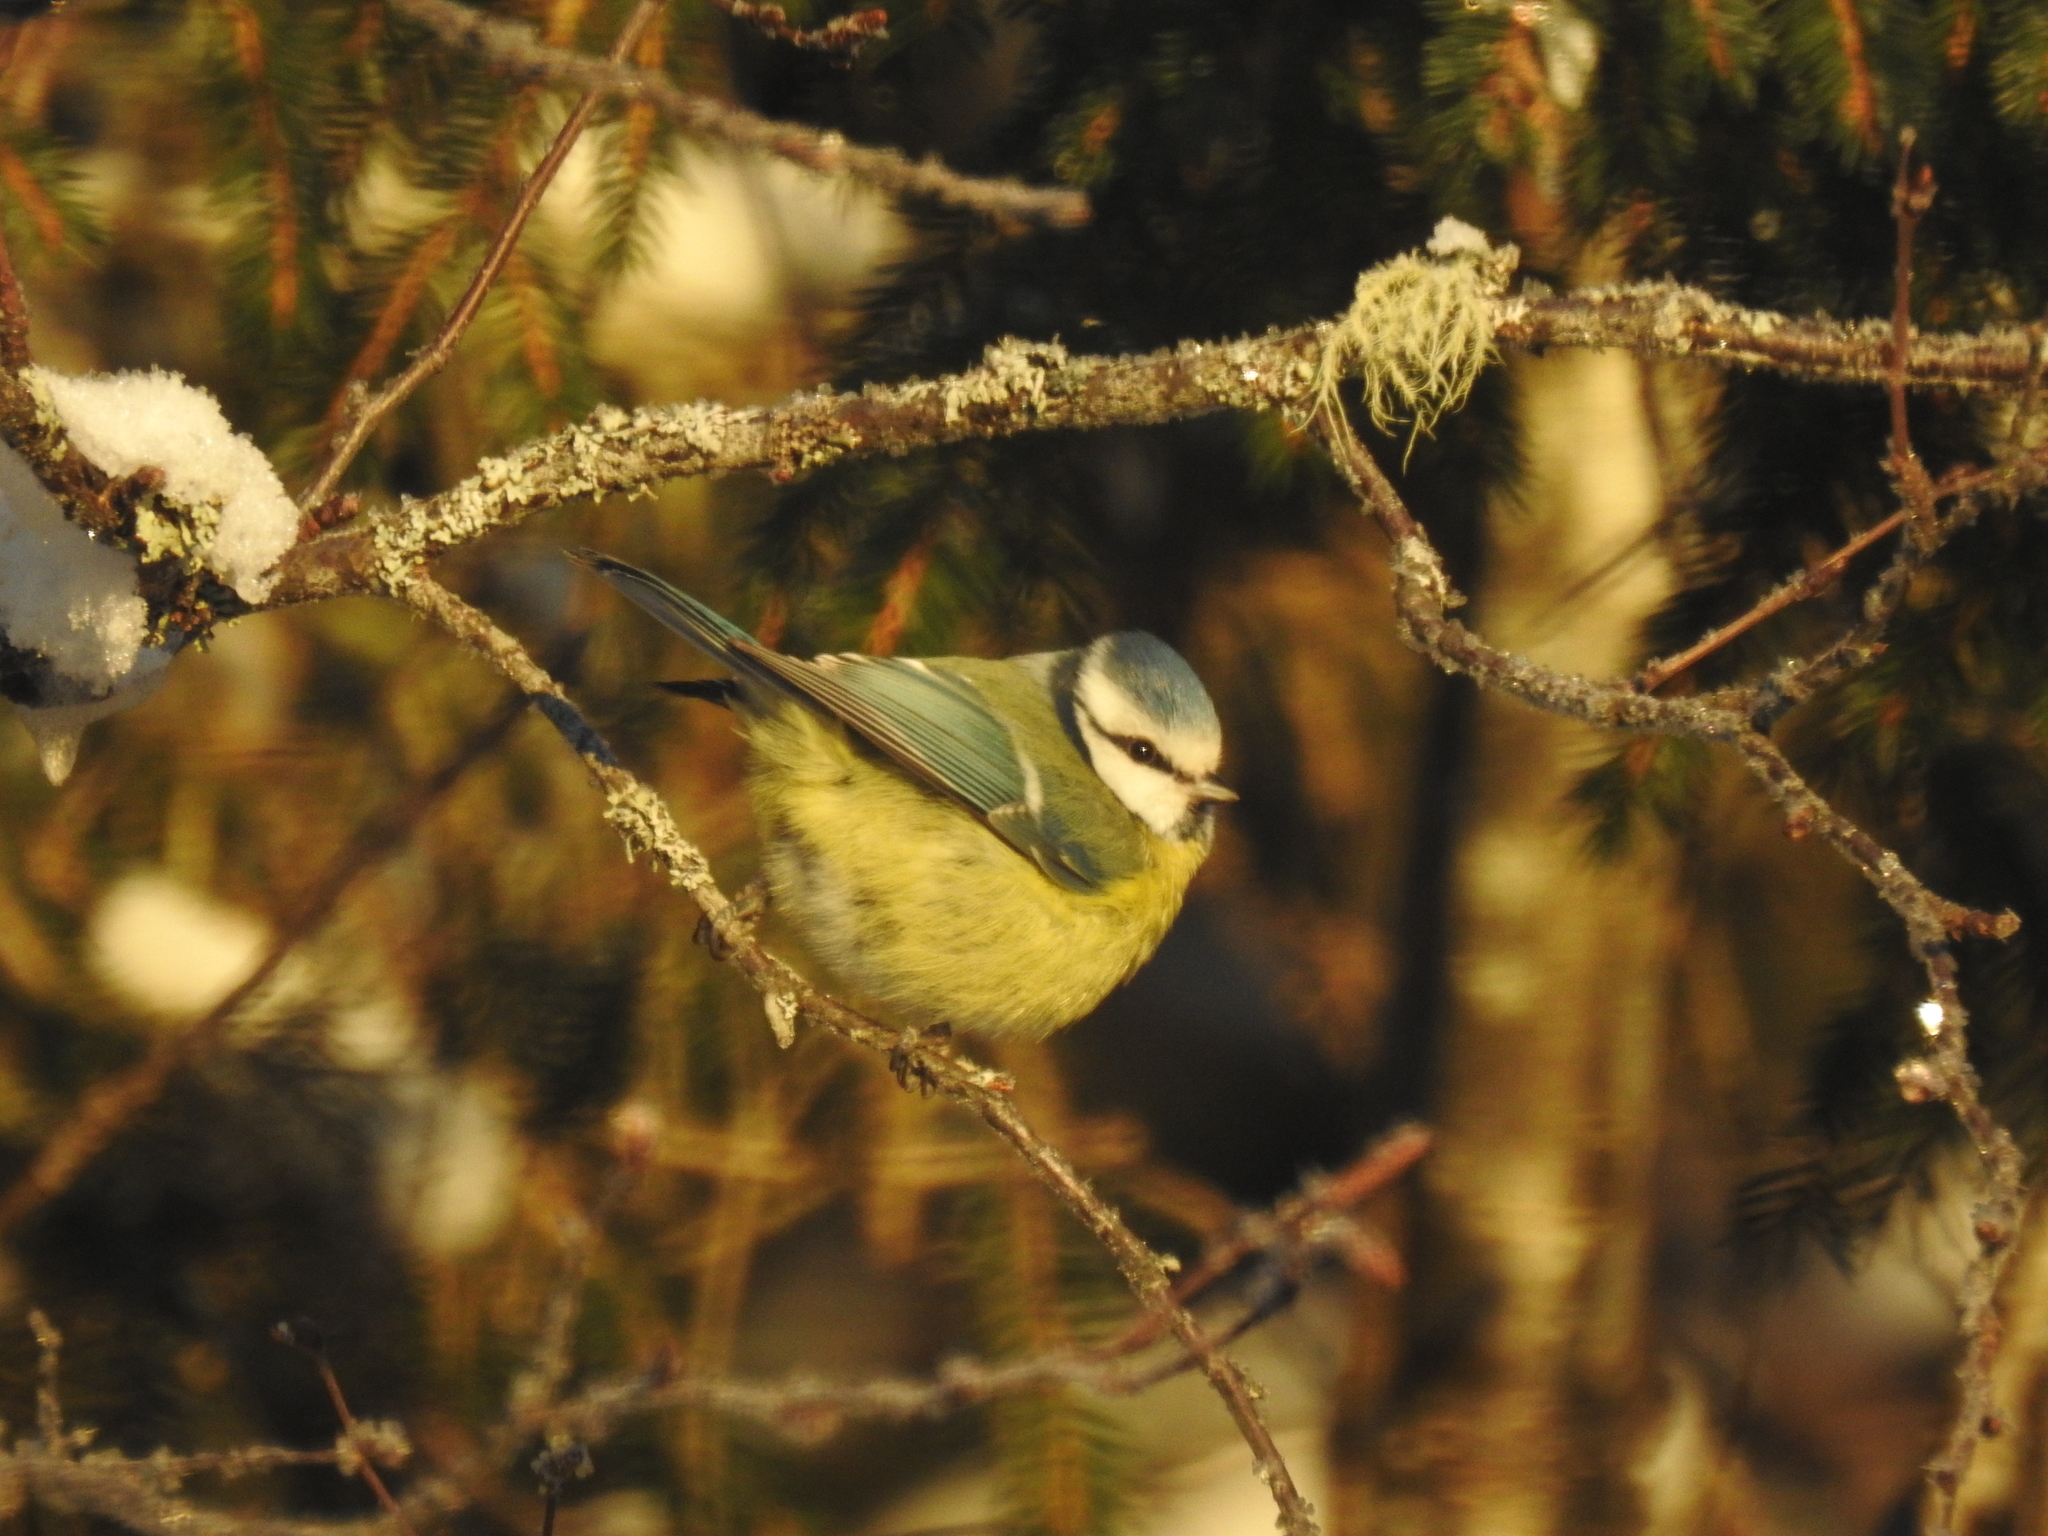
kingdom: Animalia
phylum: Chordata
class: Aves
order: Passeriformes
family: Paridae
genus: Cyanistes
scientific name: Cyanistes caeruleus
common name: Eurasian blue tit
